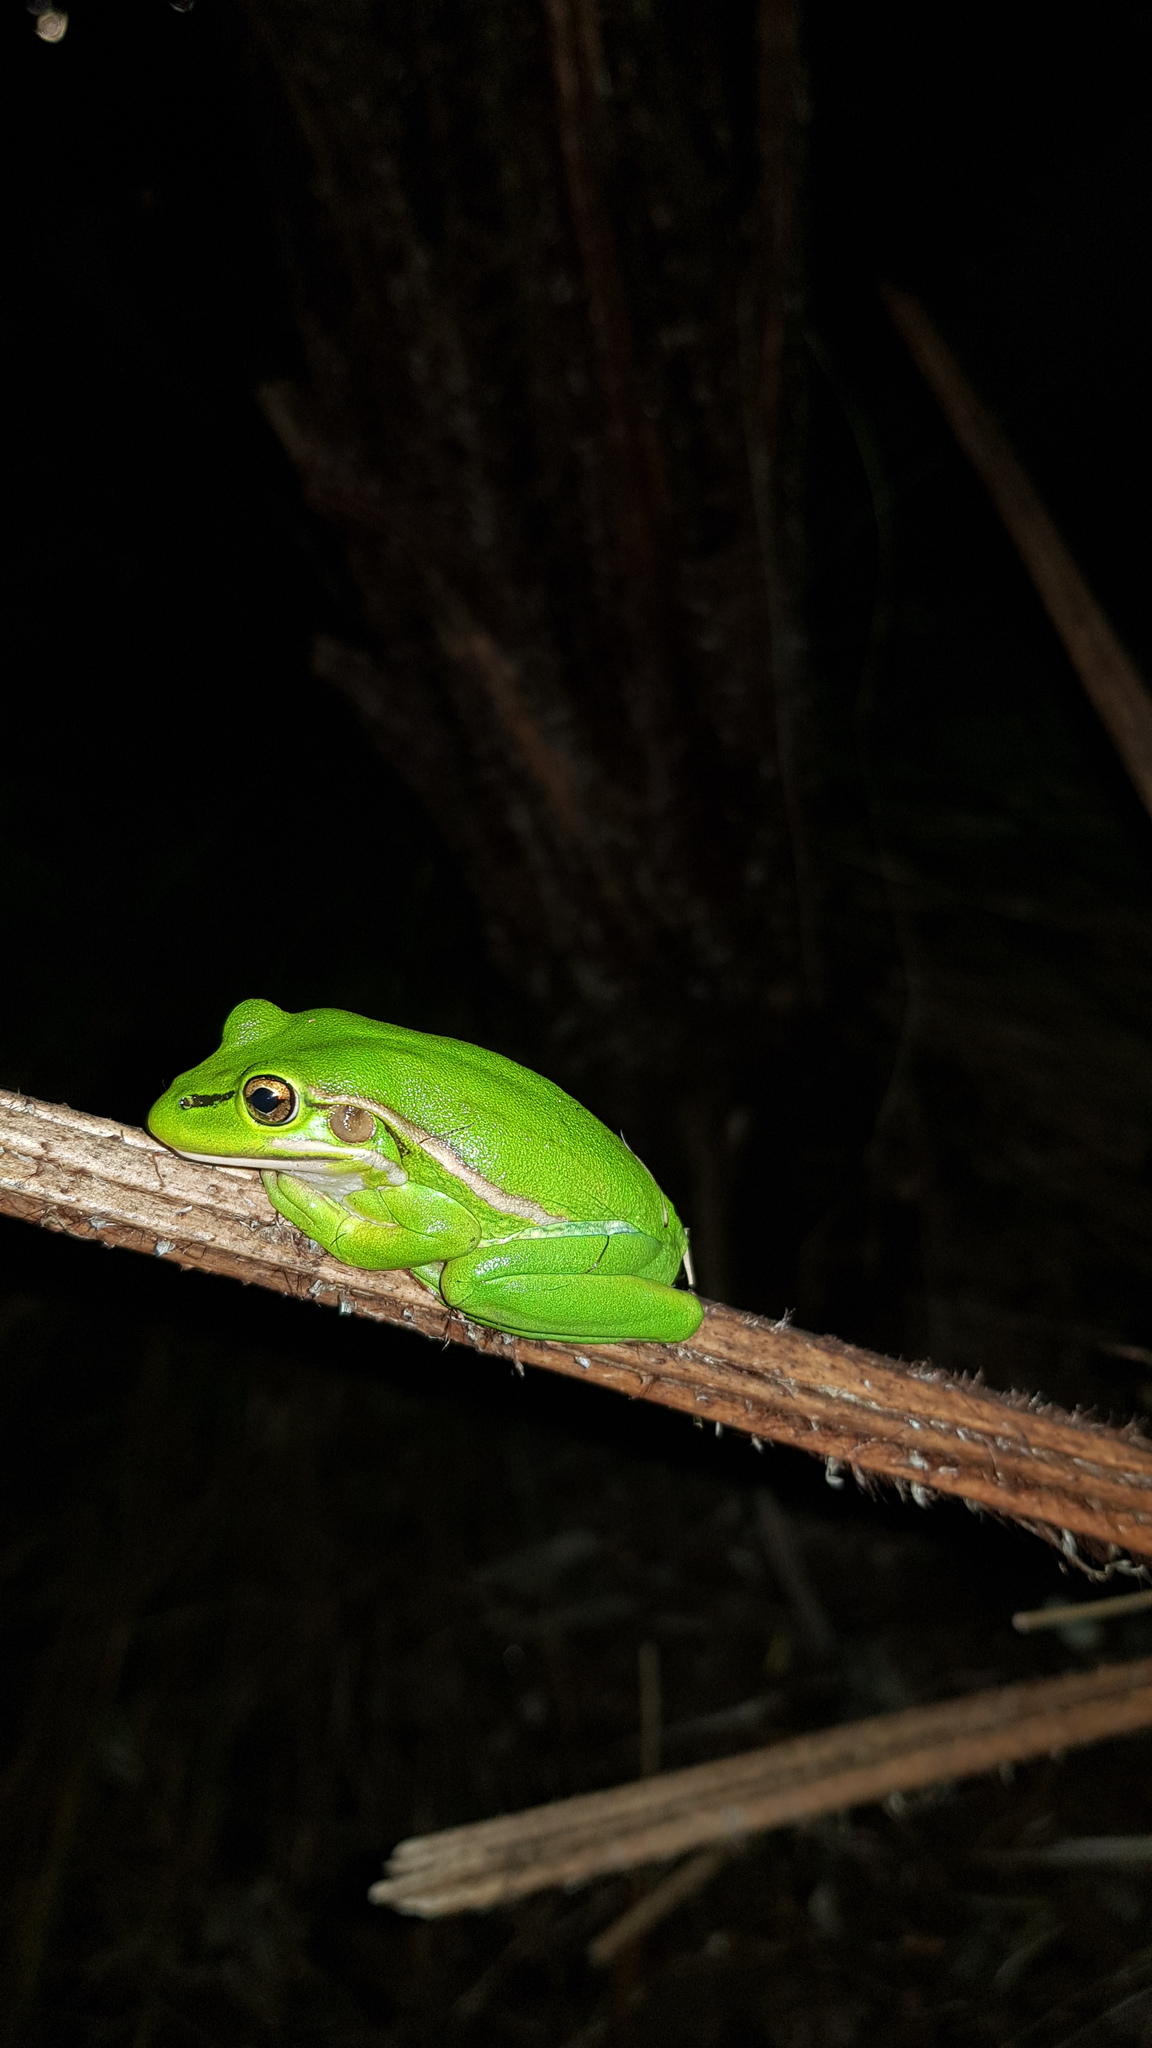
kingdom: Animalia
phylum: Chordata
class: Amphibia
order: Anura
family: Pelodryadidae
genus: Ranoidea
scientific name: Ranoidea aurea
